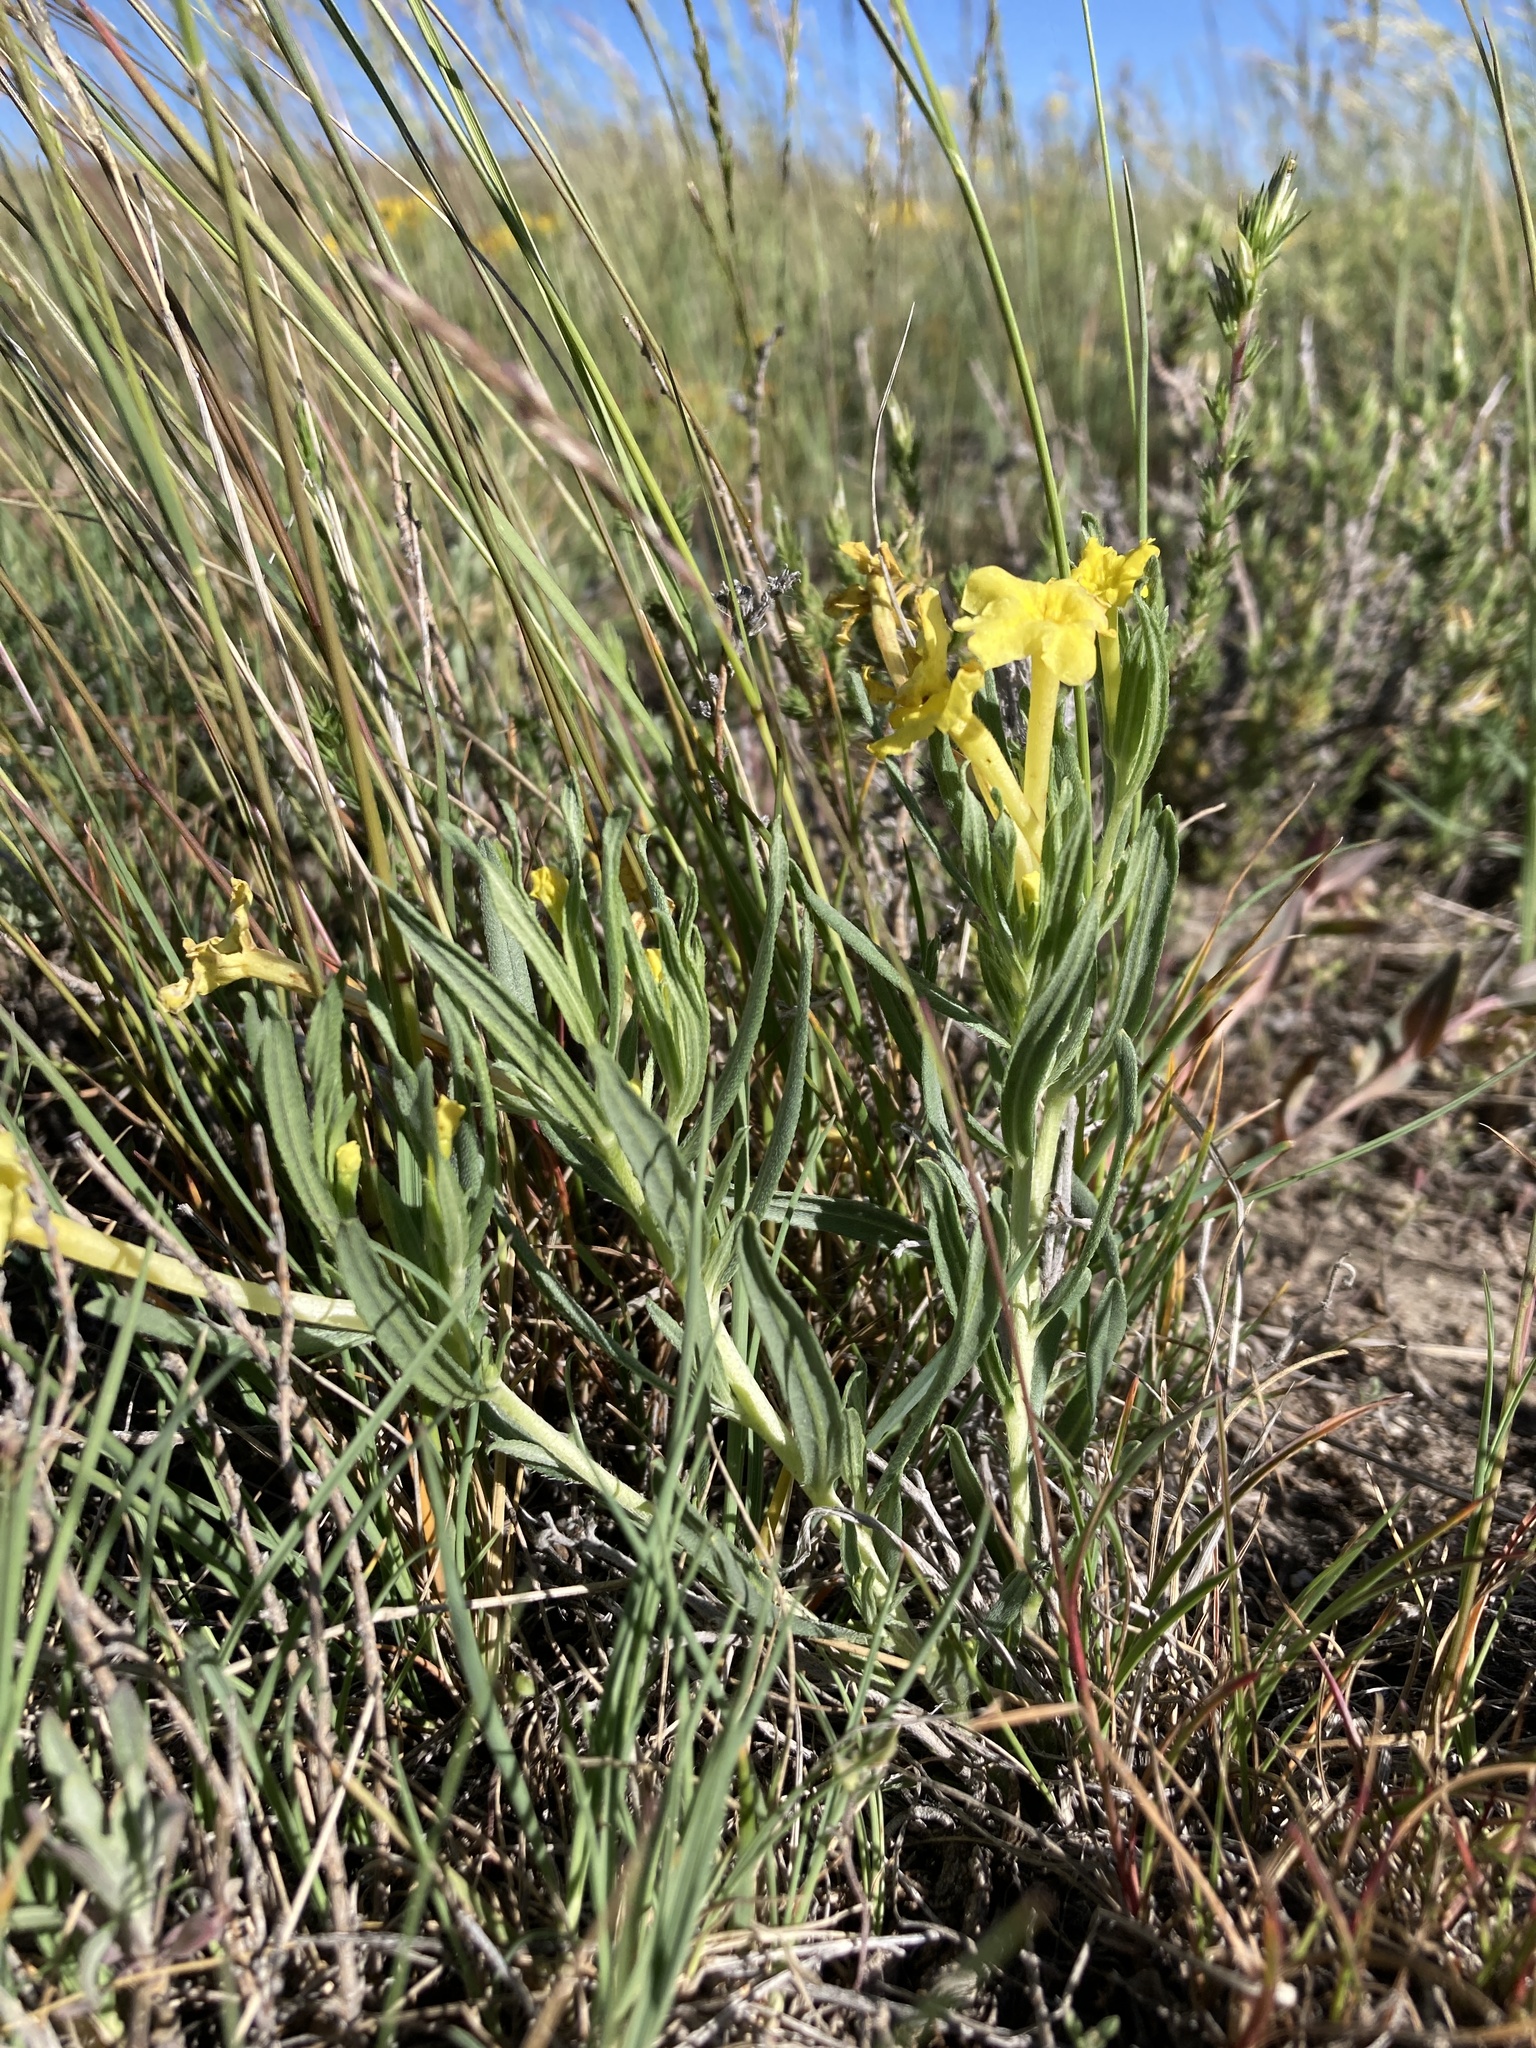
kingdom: Plantae
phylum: Tracheophyta
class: Magnoliopsida
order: Boraginales
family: Boraginaceae
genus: Lithospermum
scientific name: Lithospermum incisum
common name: Fringed gromwell
